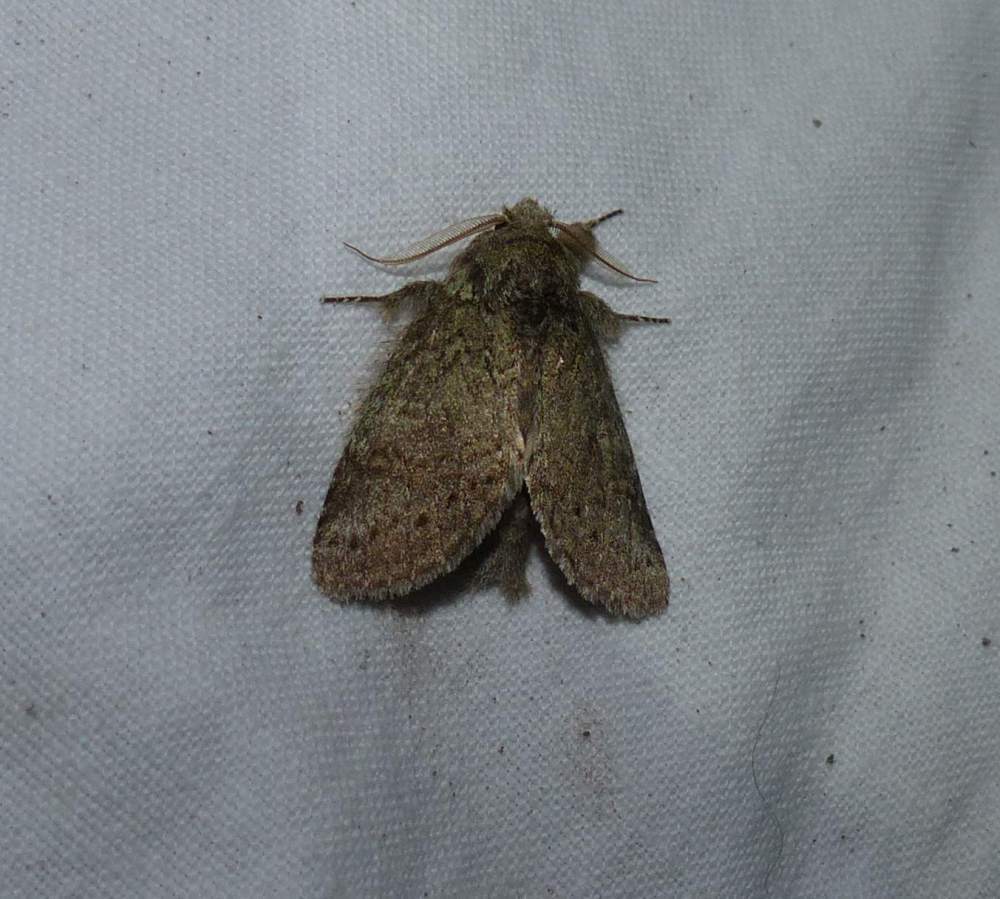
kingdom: Animalia
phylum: Arthropoda
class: Insecta
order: Lepidoptera
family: Notodontidae
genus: Disphragis
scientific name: Disphragis Cecrita guttivitta
